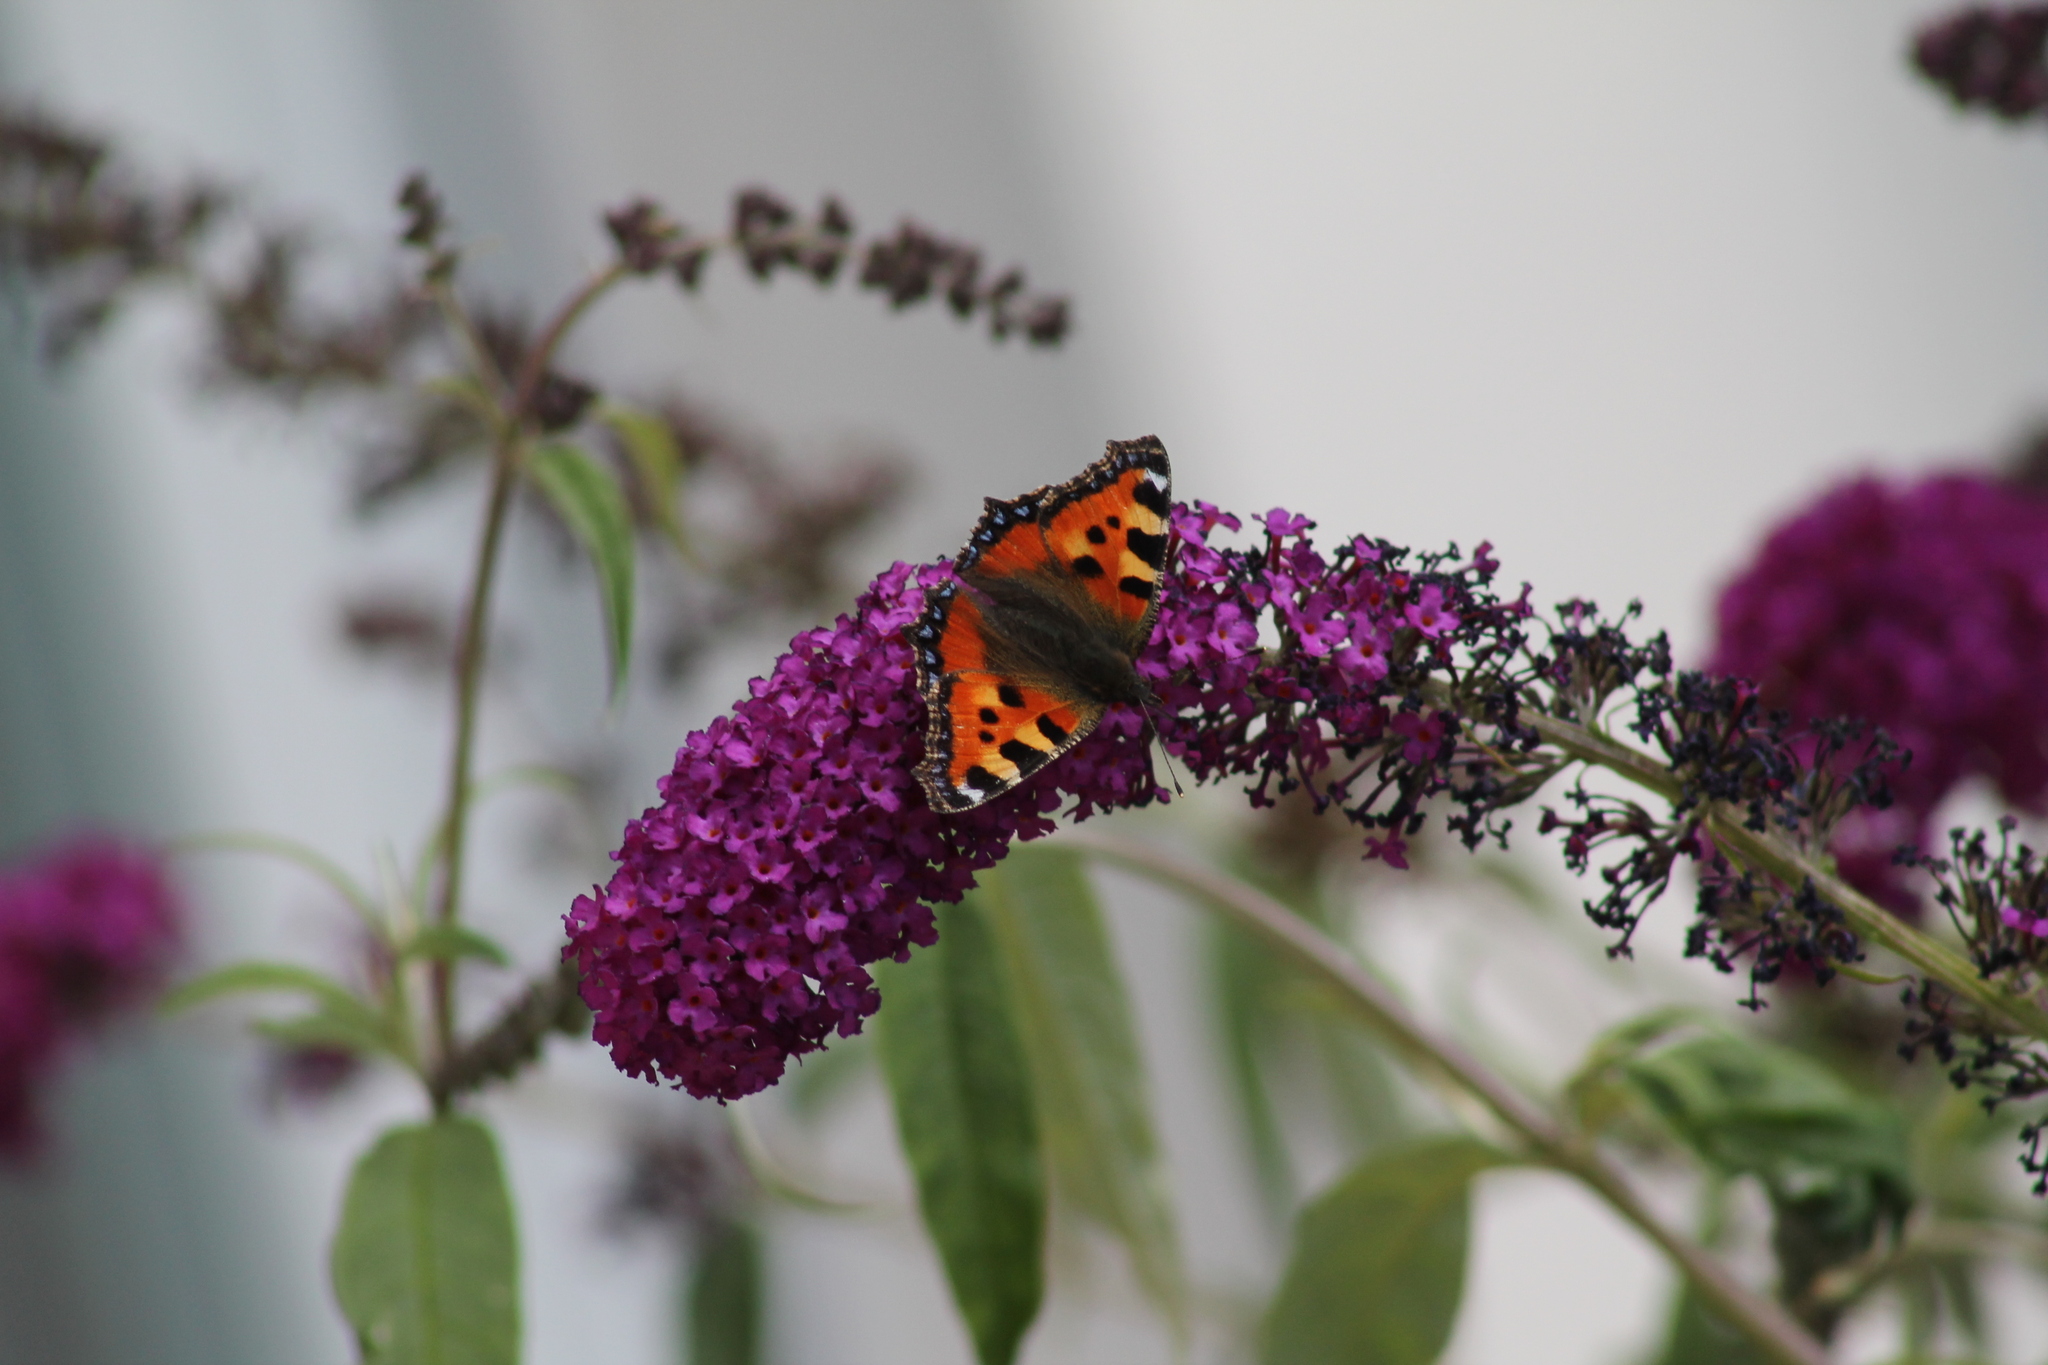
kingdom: Animalia
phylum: Arthropoda
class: Insecta
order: Lepidoptera
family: Nymphalidae
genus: Aglais
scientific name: Aglais urticae
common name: Small tortoiseshell
